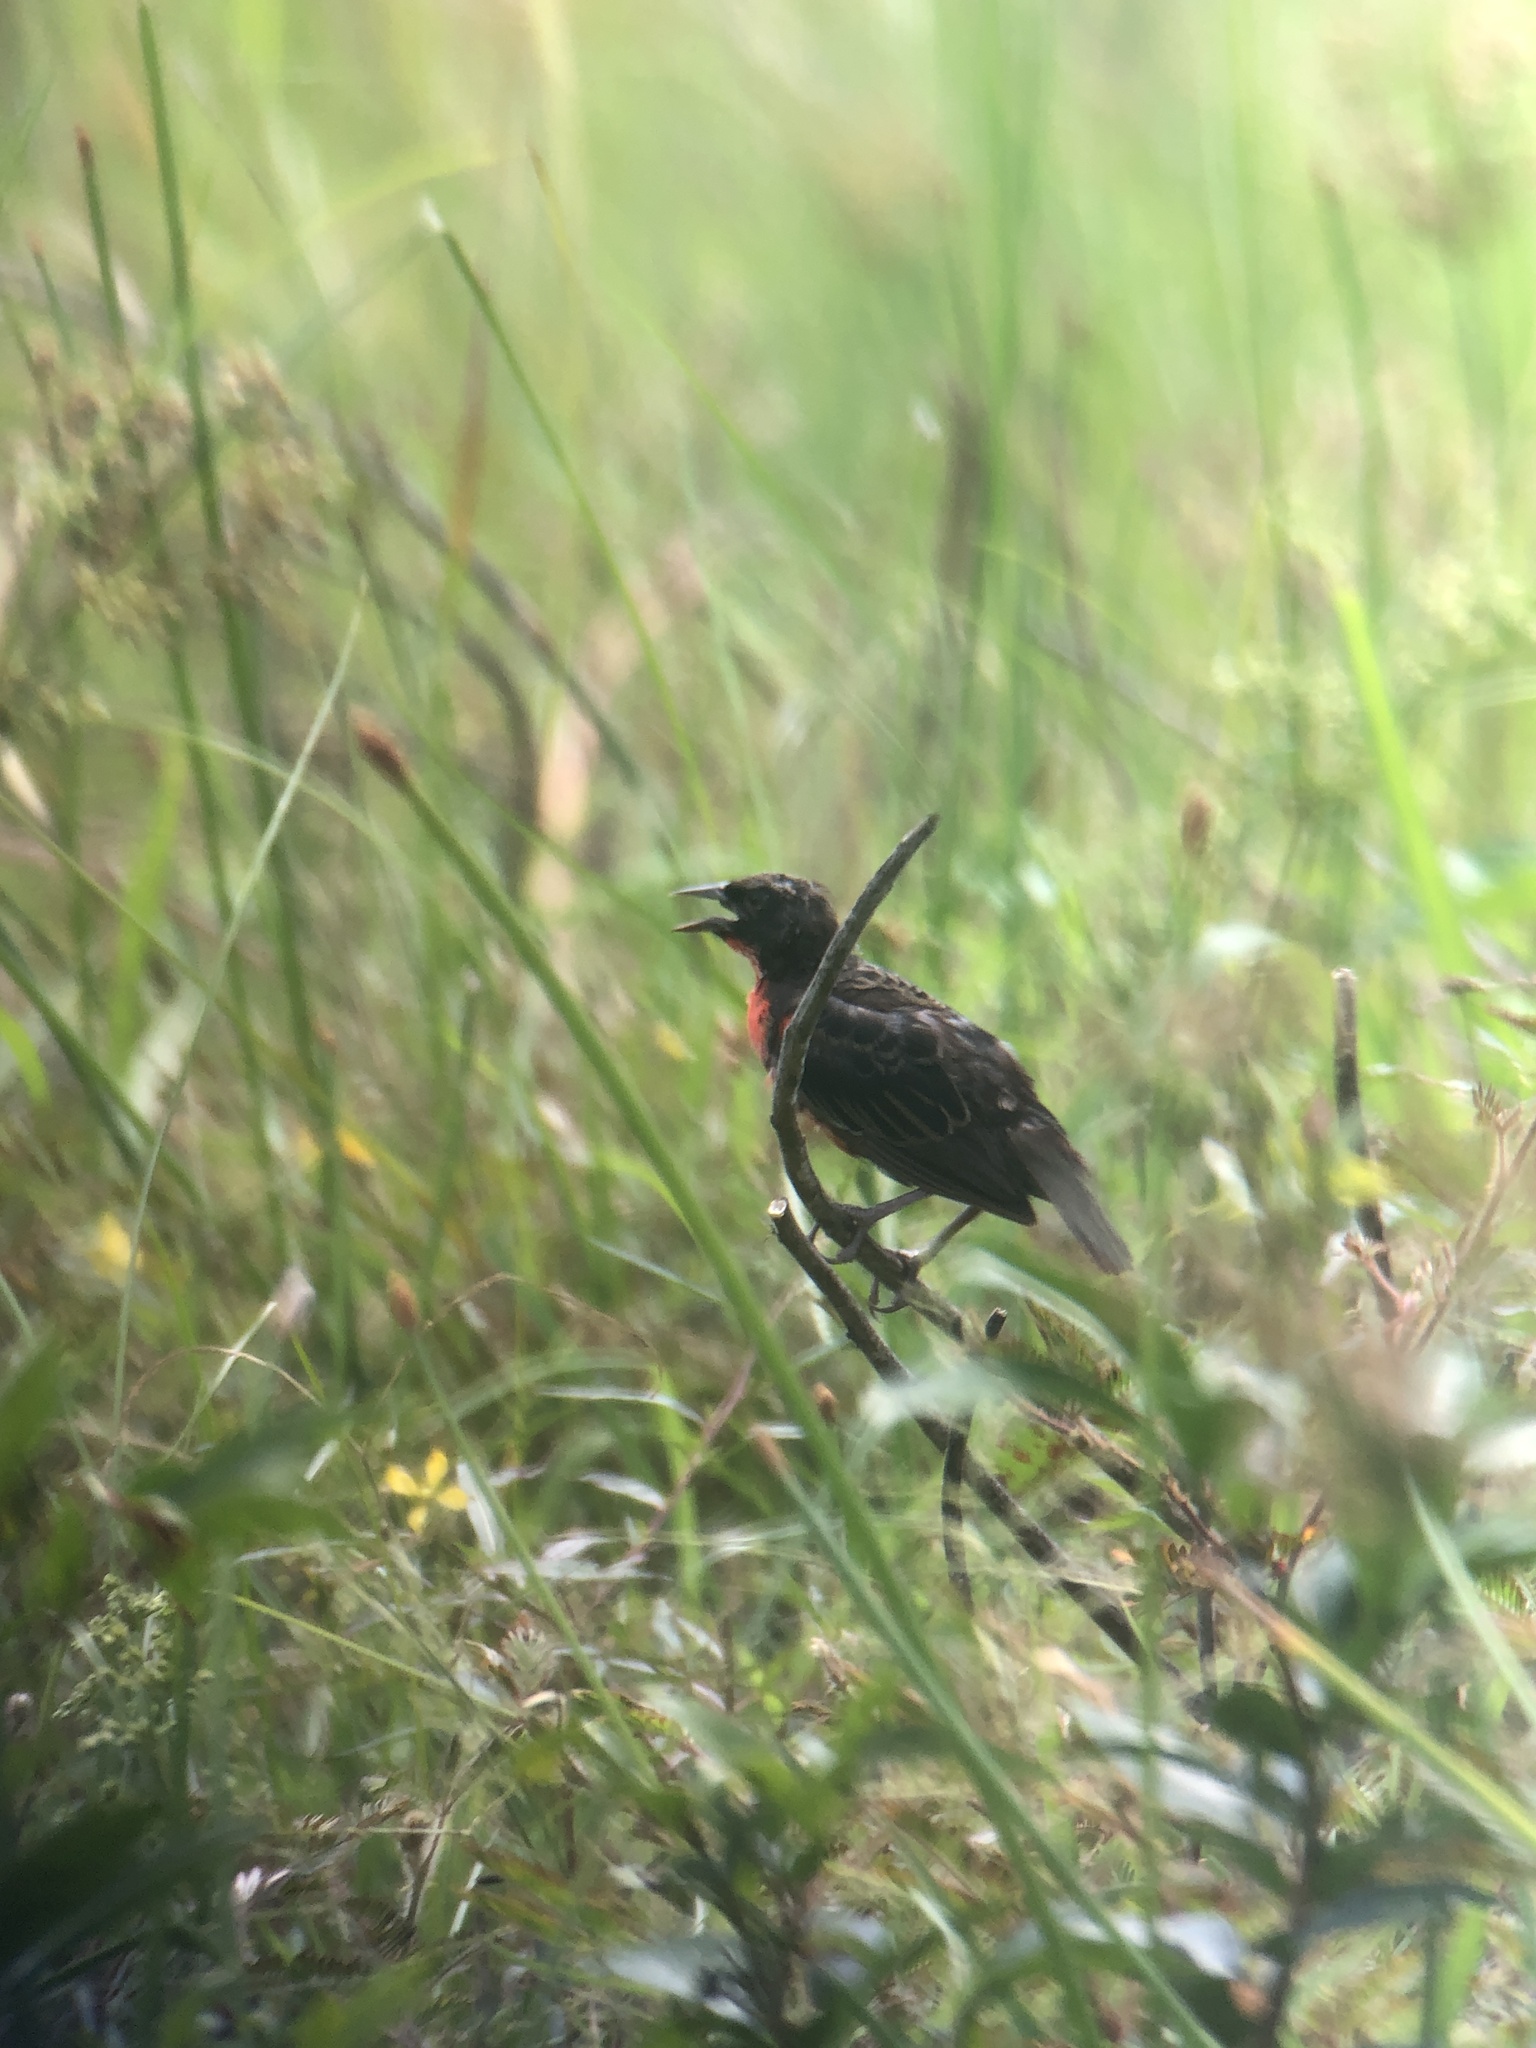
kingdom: Animalia
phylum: Chordata
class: Aves
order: Passeriformes
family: Icteridae
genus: Sturnella
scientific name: Sturnella militaris
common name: Red-breasted blackbird
